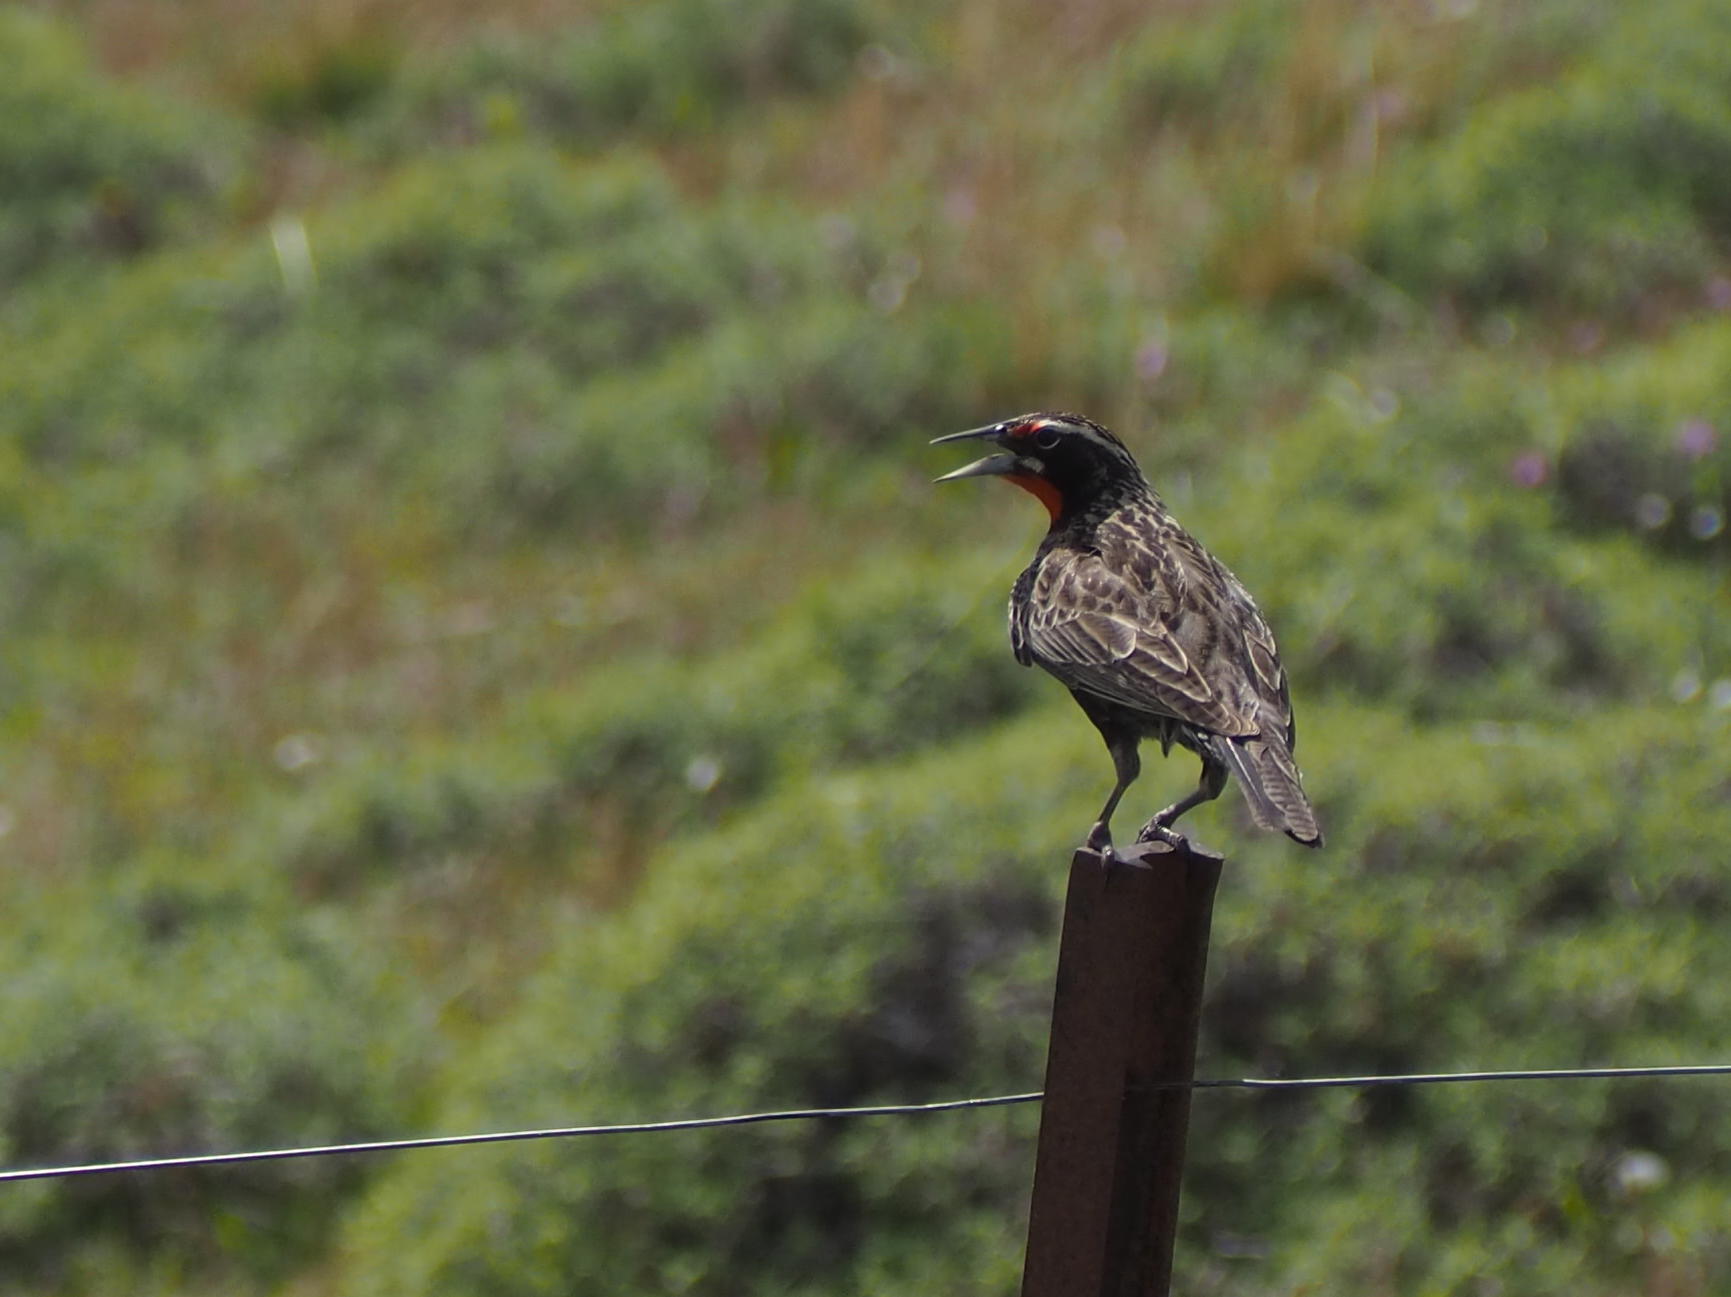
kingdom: Animalia
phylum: Chordata
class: Aves
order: Passeriformes
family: Icteridae
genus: Sturnella
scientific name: Sturnella loyca
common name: Long-tailed meadowlark
